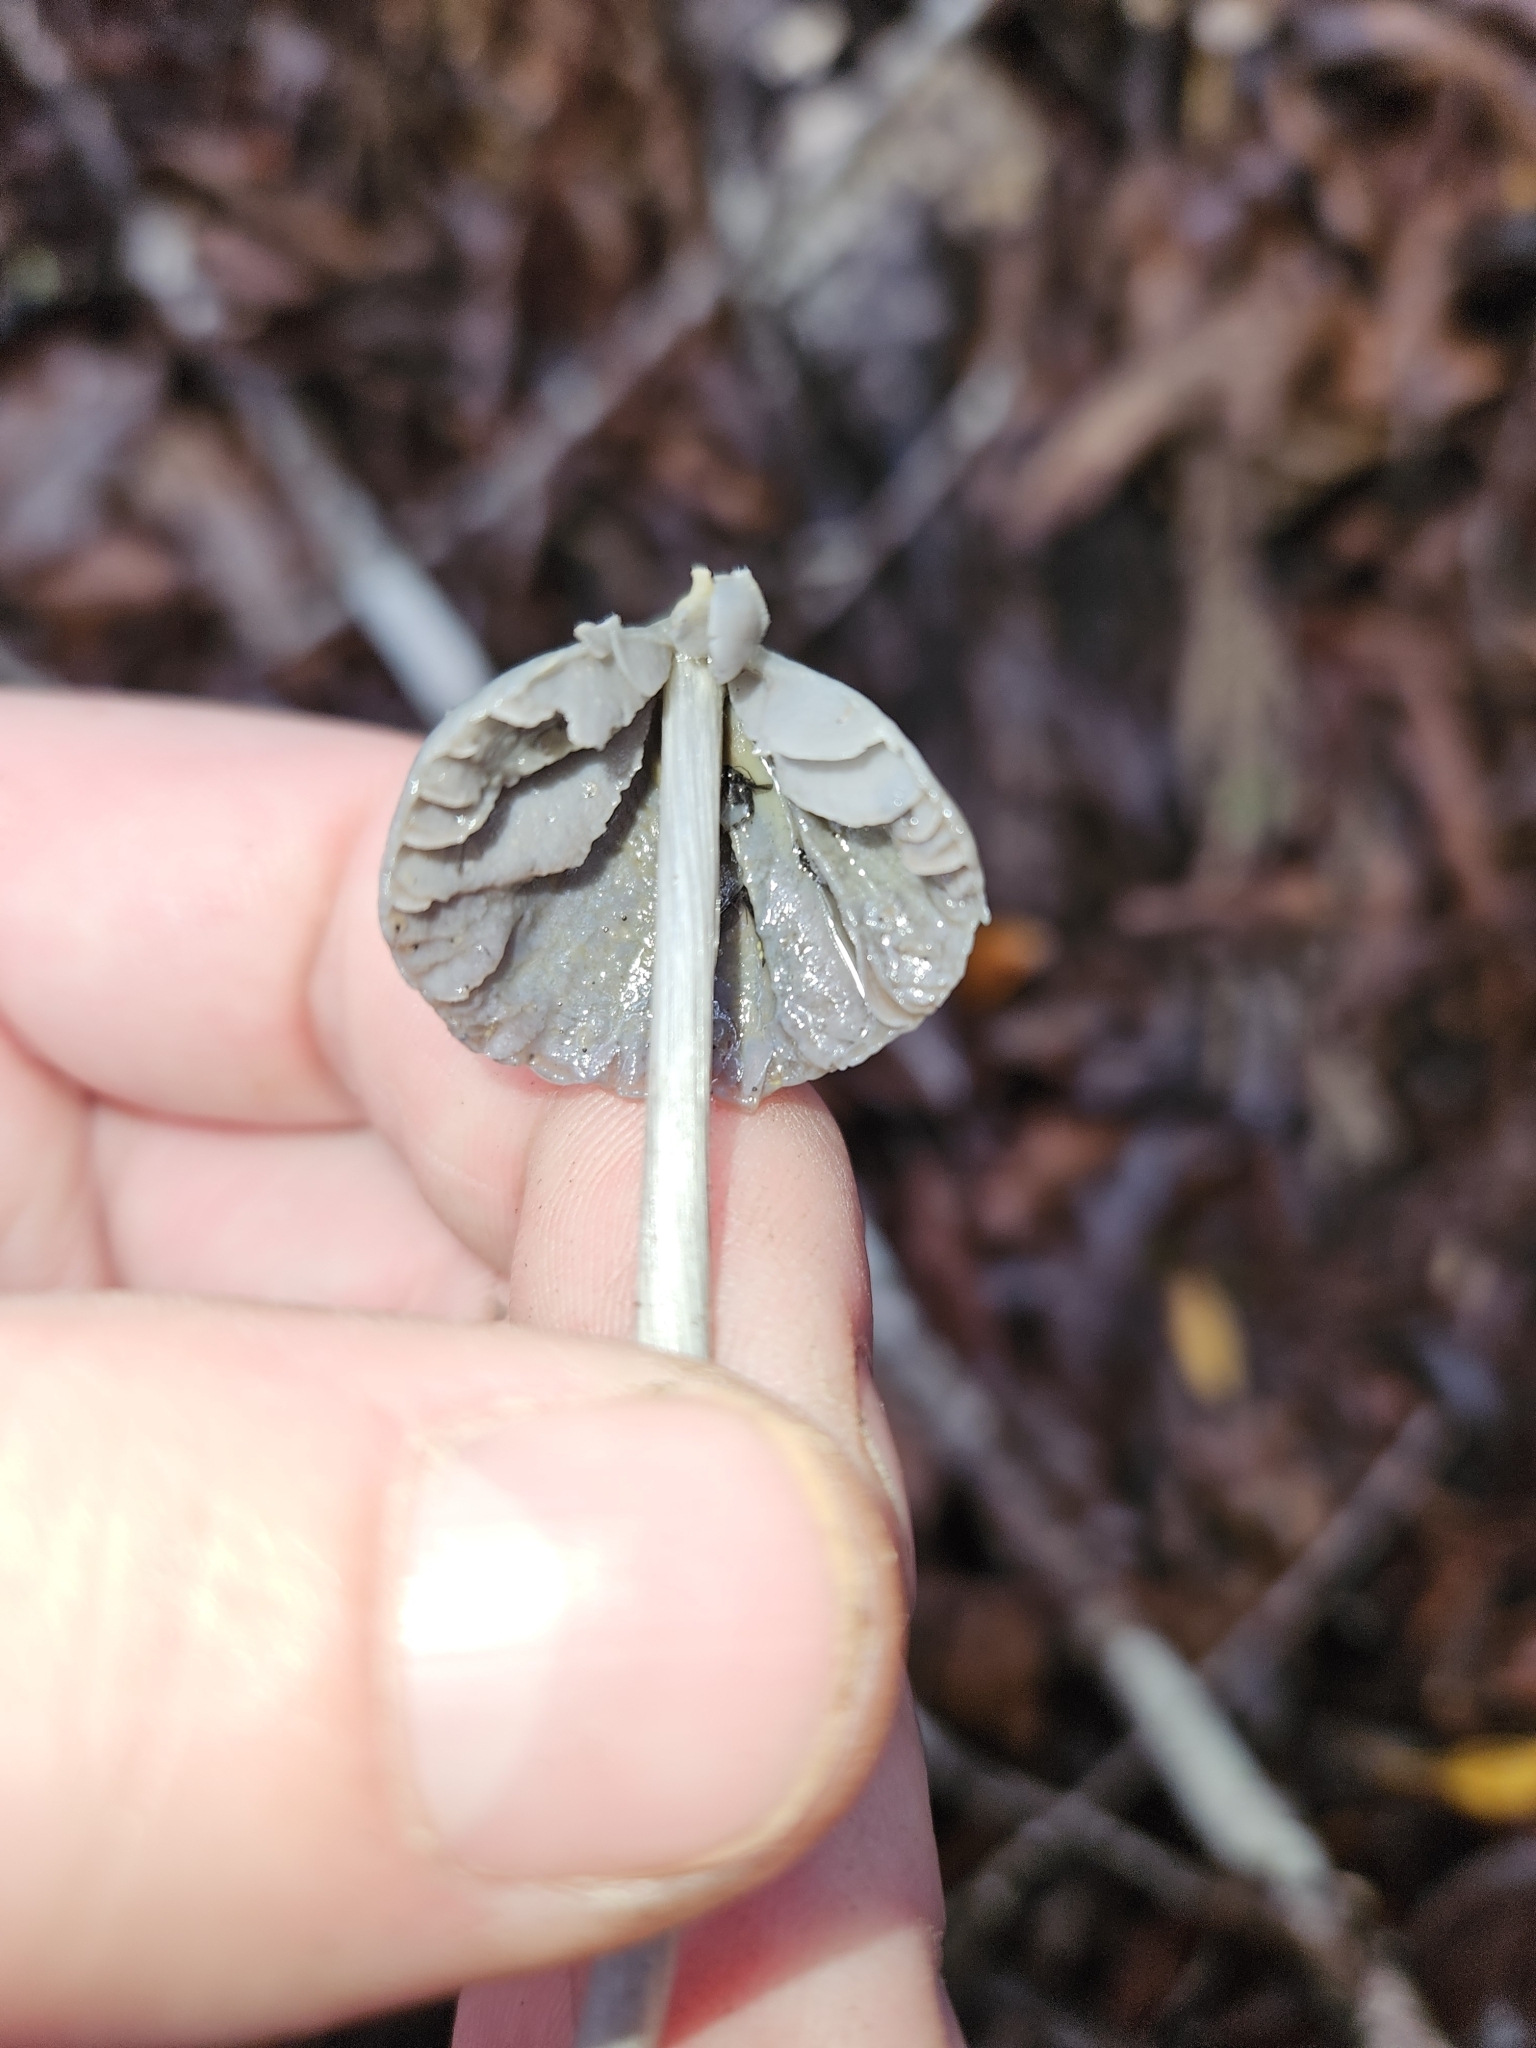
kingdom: Fungi
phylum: Basidiomycota
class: Agaricomycetes
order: Agaricales
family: Entolomataceae
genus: Entoloma
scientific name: Entoloma canoconicum
